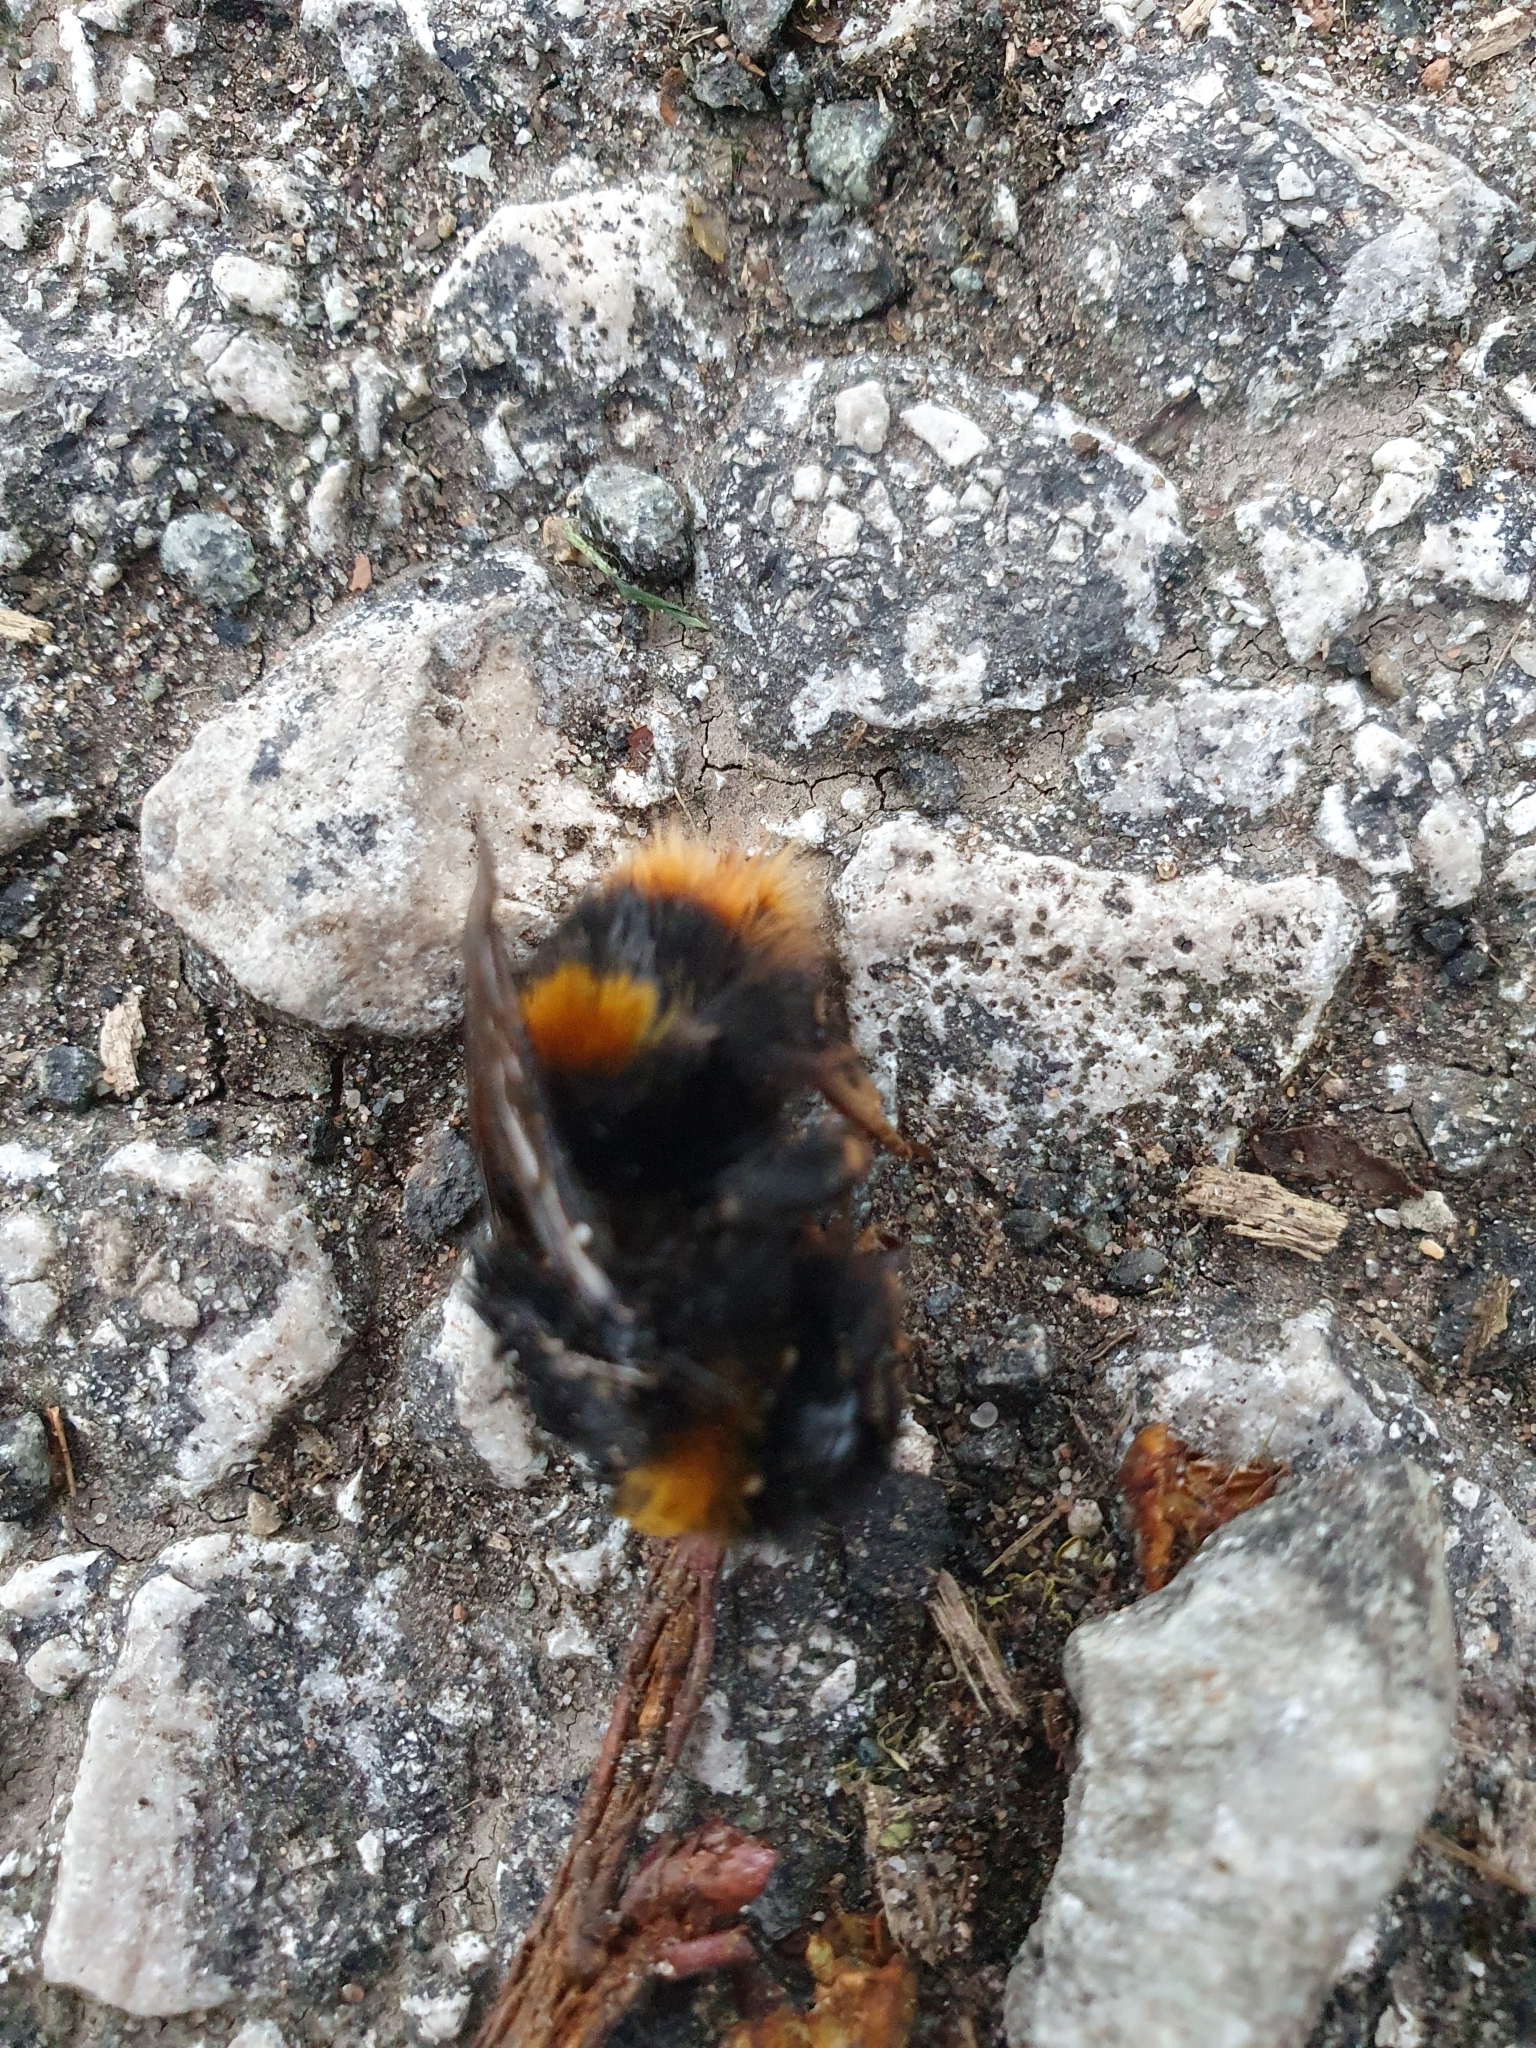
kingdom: Animalia
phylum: Arthropoda
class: Insecta
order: Hymenoptera
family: Apidae
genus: Bombus
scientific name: Bombus terrestris
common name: Buff-tailed bumblebee
